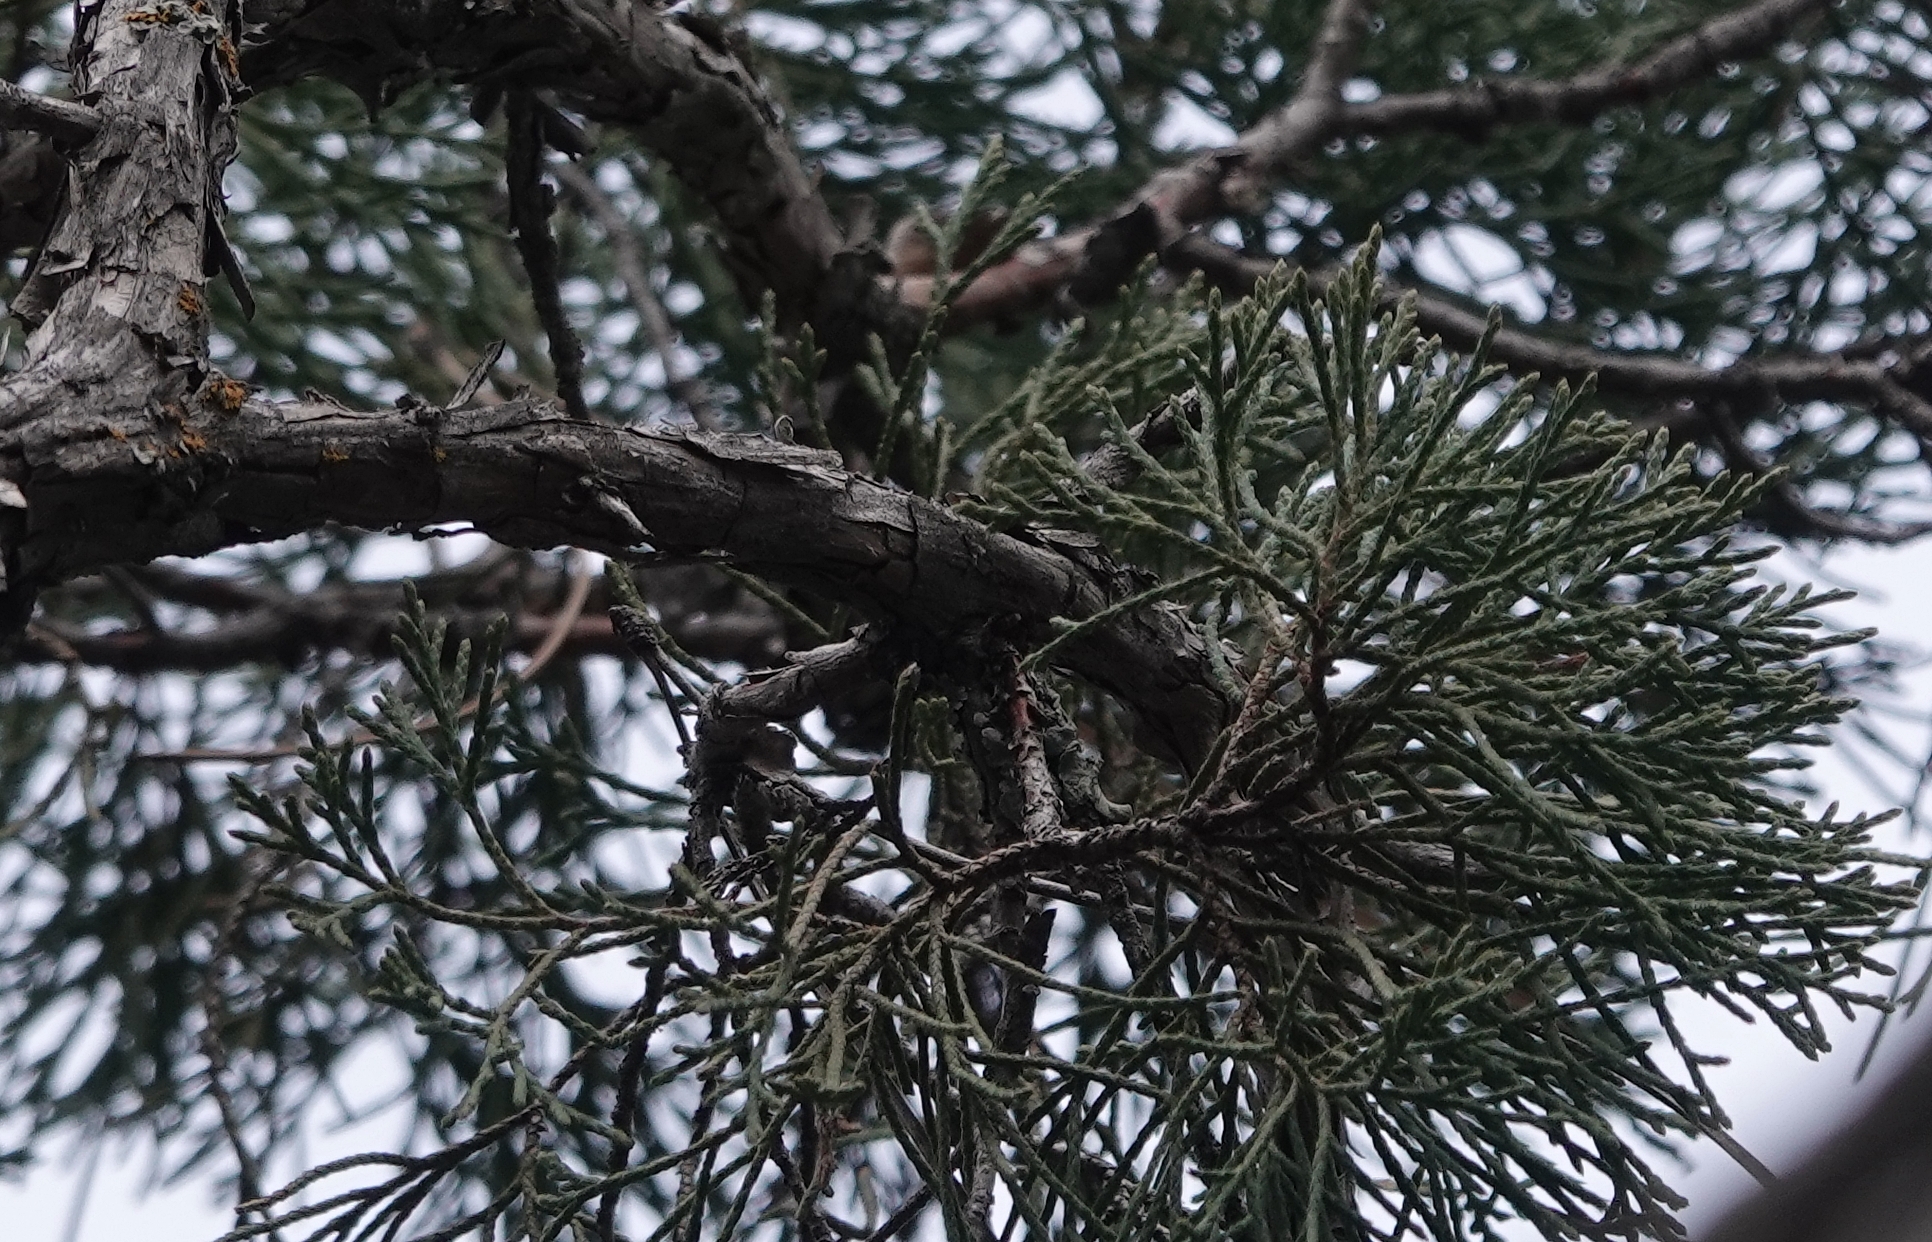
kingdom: Plantae
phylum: Tracheophyta
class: Pinopsida
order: Pinales
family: Cupressaceae
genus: Juniperus
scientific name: Juniperus scopulorum
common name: Rocky mountain juniper
